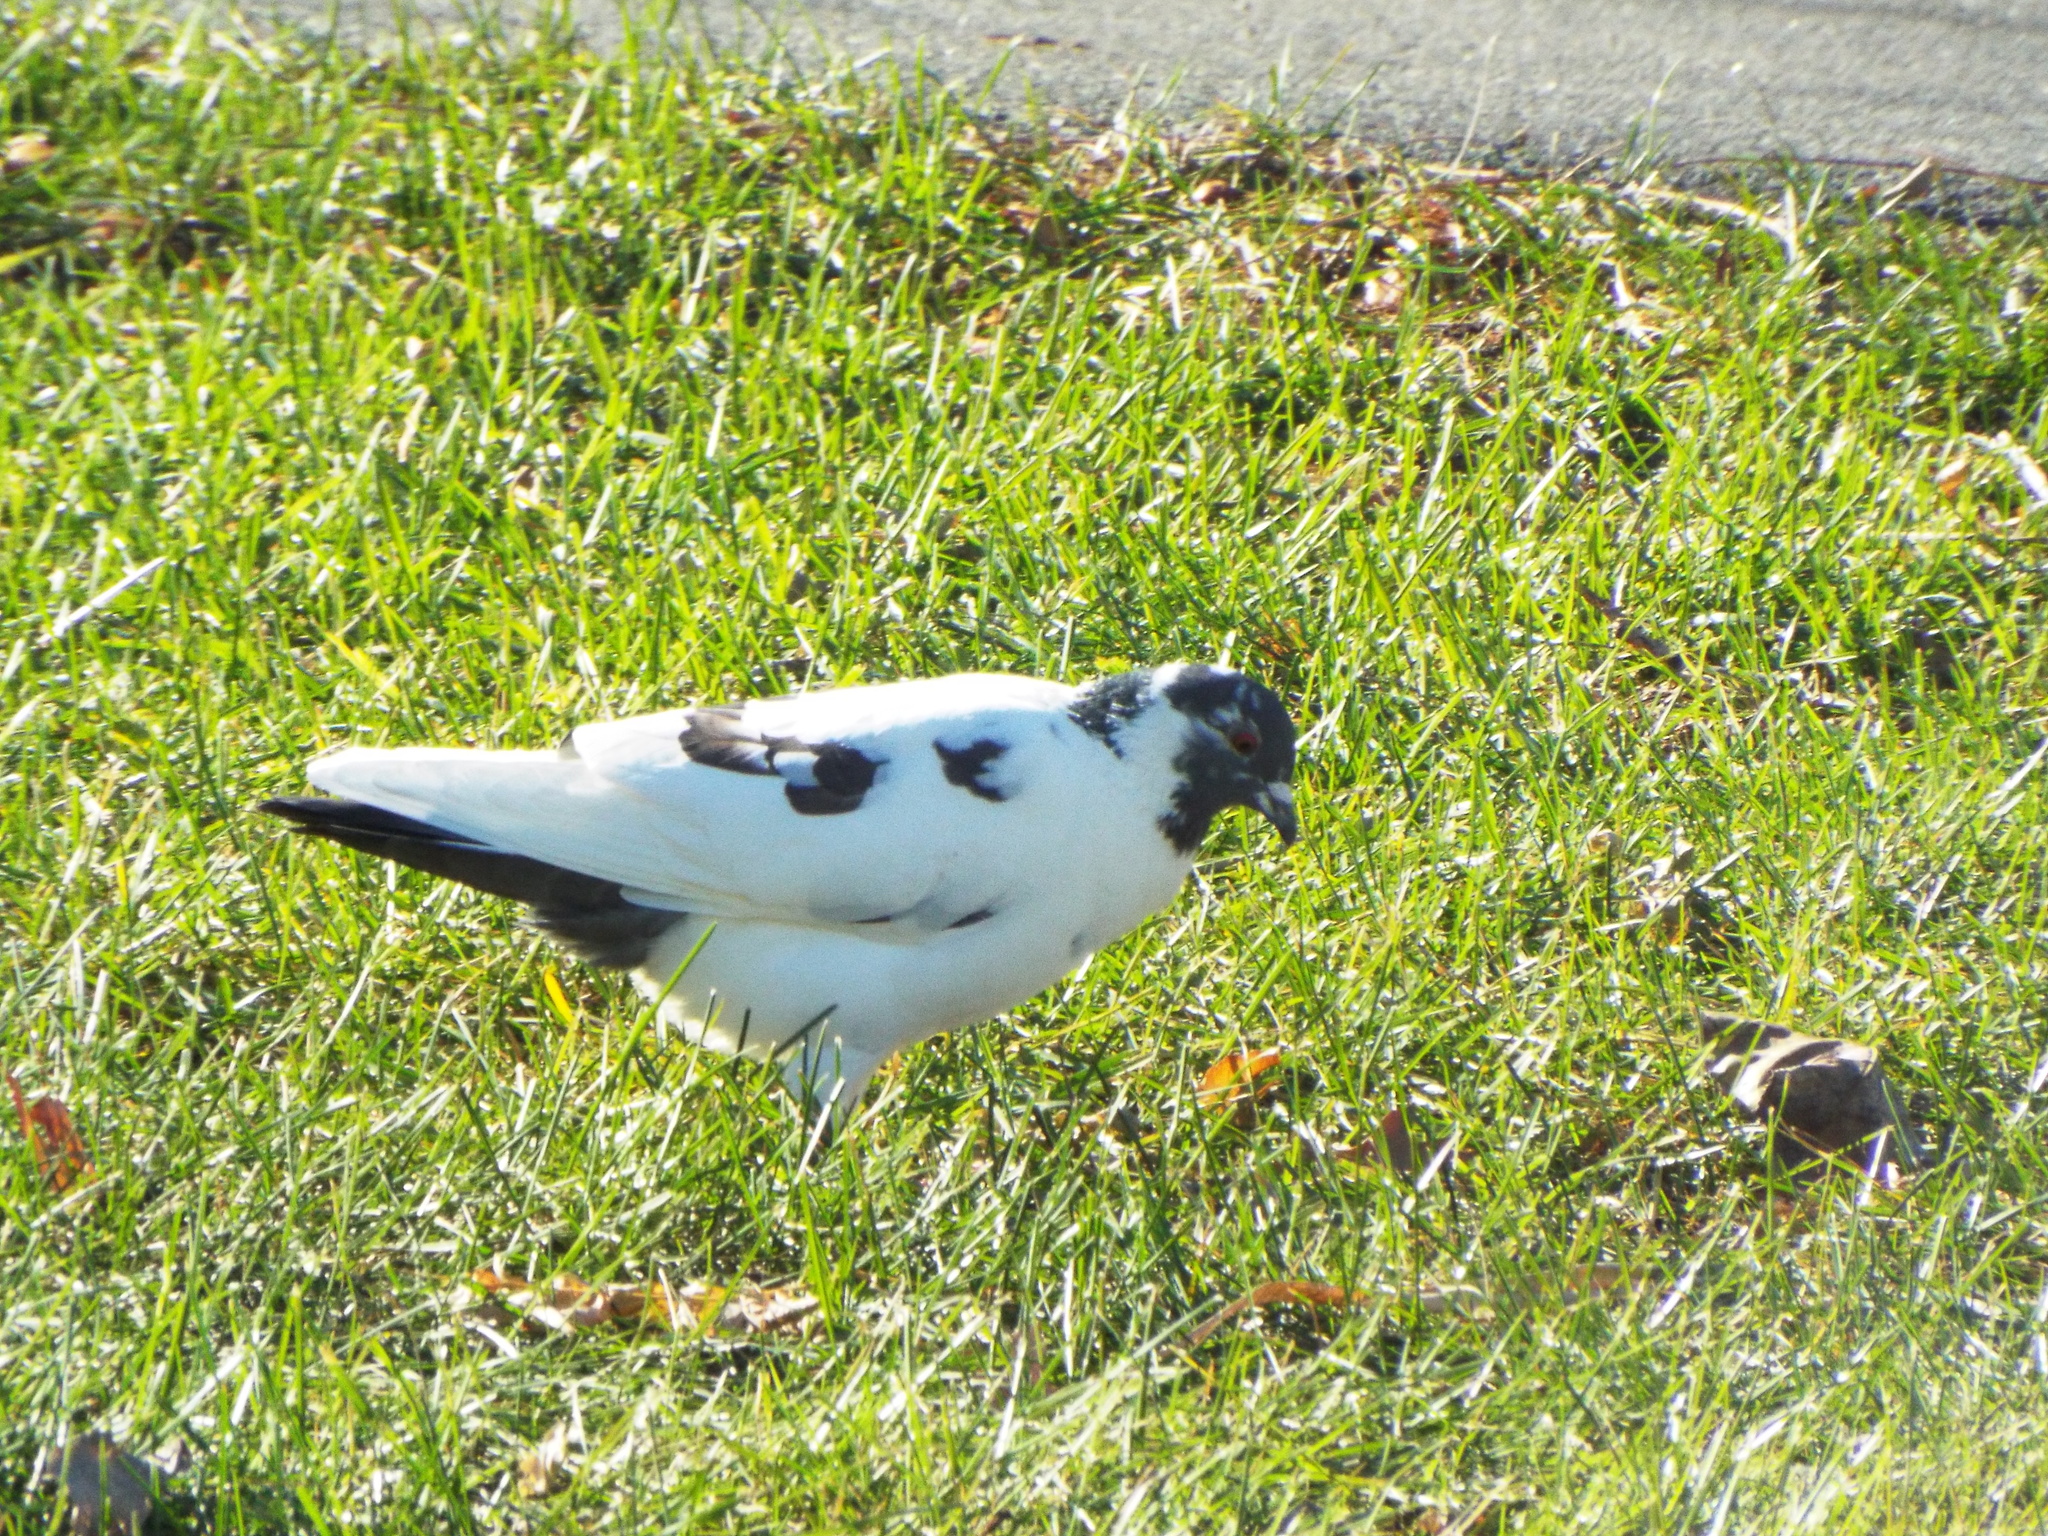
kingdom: Animalia
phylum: Chordata
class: Aves
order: Columbiformes
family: Columbidae
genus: Columba
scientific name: Columba livia
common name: Rock pigeon
